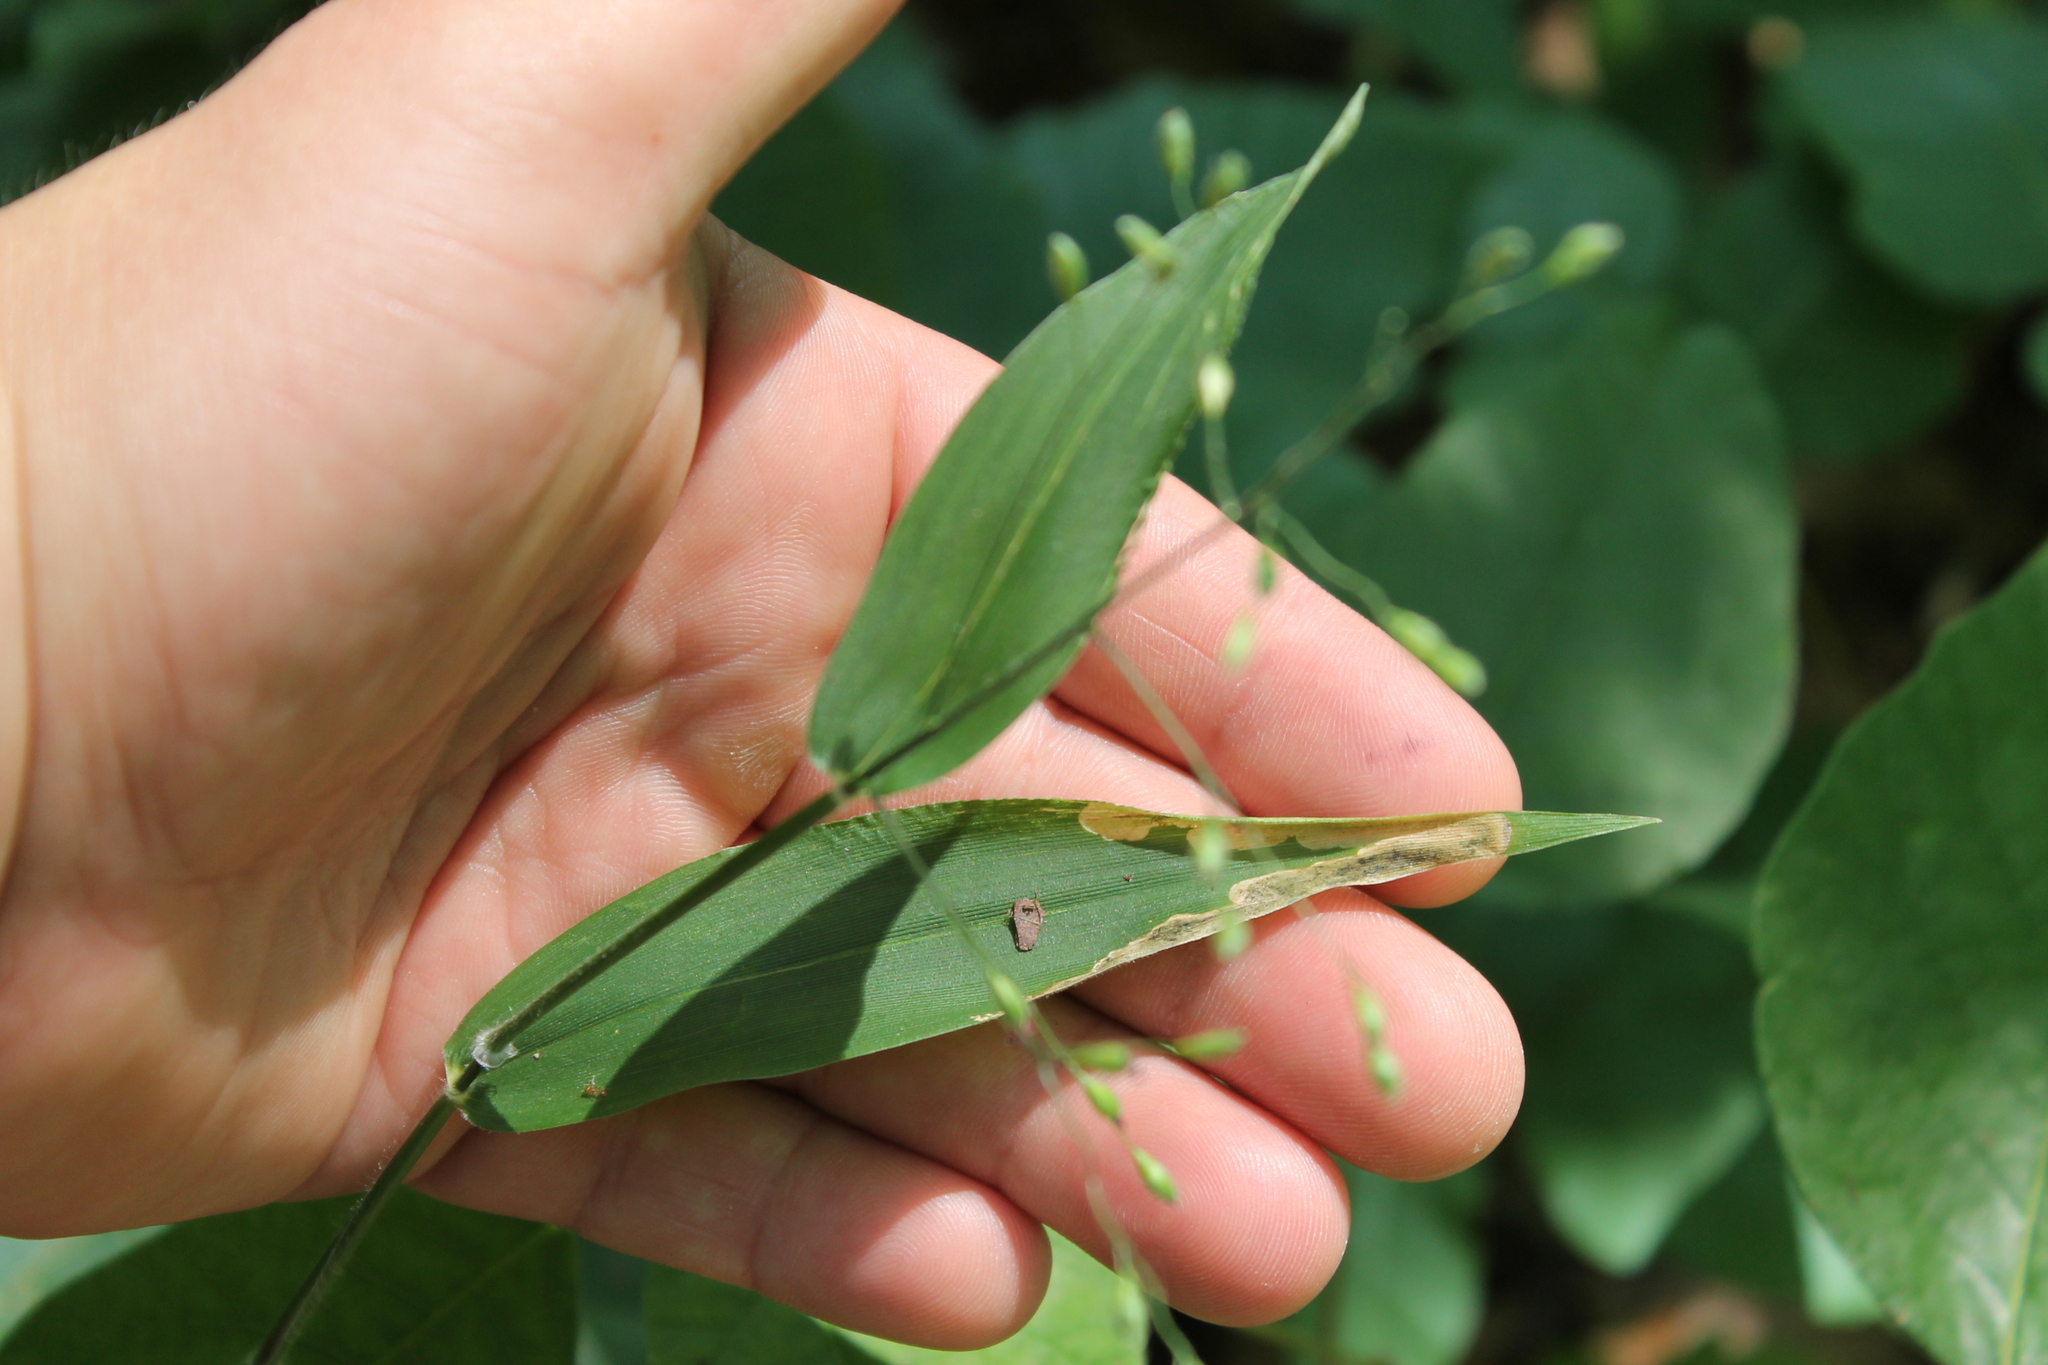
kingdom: Plantae
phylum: Tracheophyta
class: Liliopsida
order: Poales
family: Poaceae
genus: Dichanthelium
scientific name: Dichanthelium boscii
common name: Bosc's panic grass
